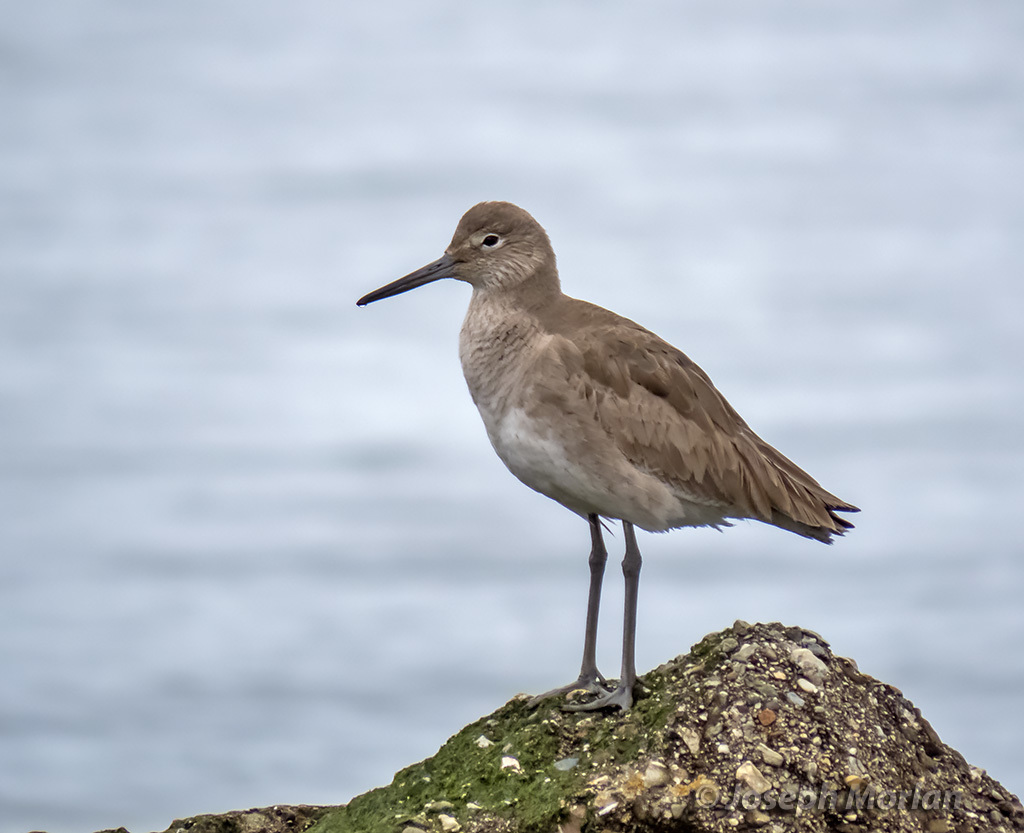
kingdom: Animalia
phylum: Chordata
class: Aves
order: Charadriiformes
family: Scolopacidae
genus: Tringa
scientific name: Tringa semipalmata
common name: Willet
